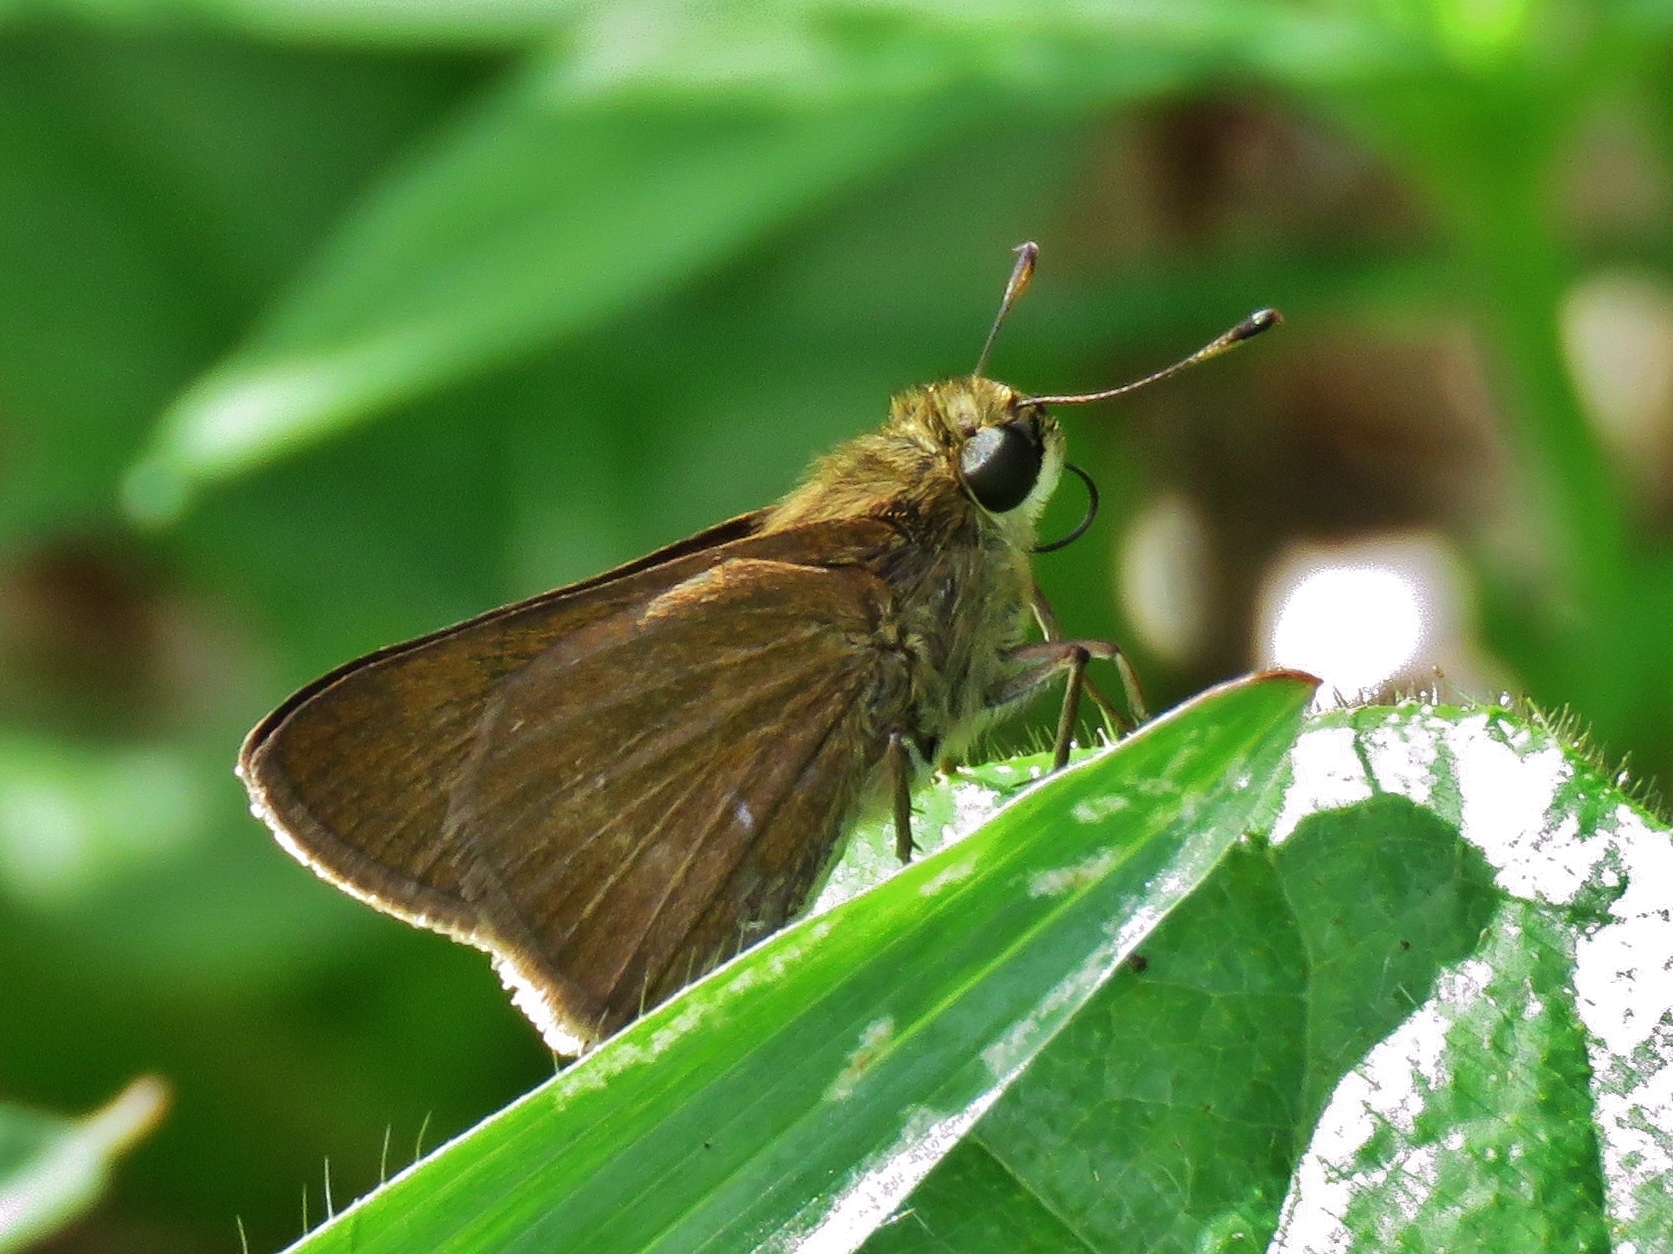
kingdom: Animalia
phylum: Arthropoda
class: Insecta
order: Lepidoptera
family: Hesperiidae
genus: Euphyes
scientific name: Euphyes peneia
